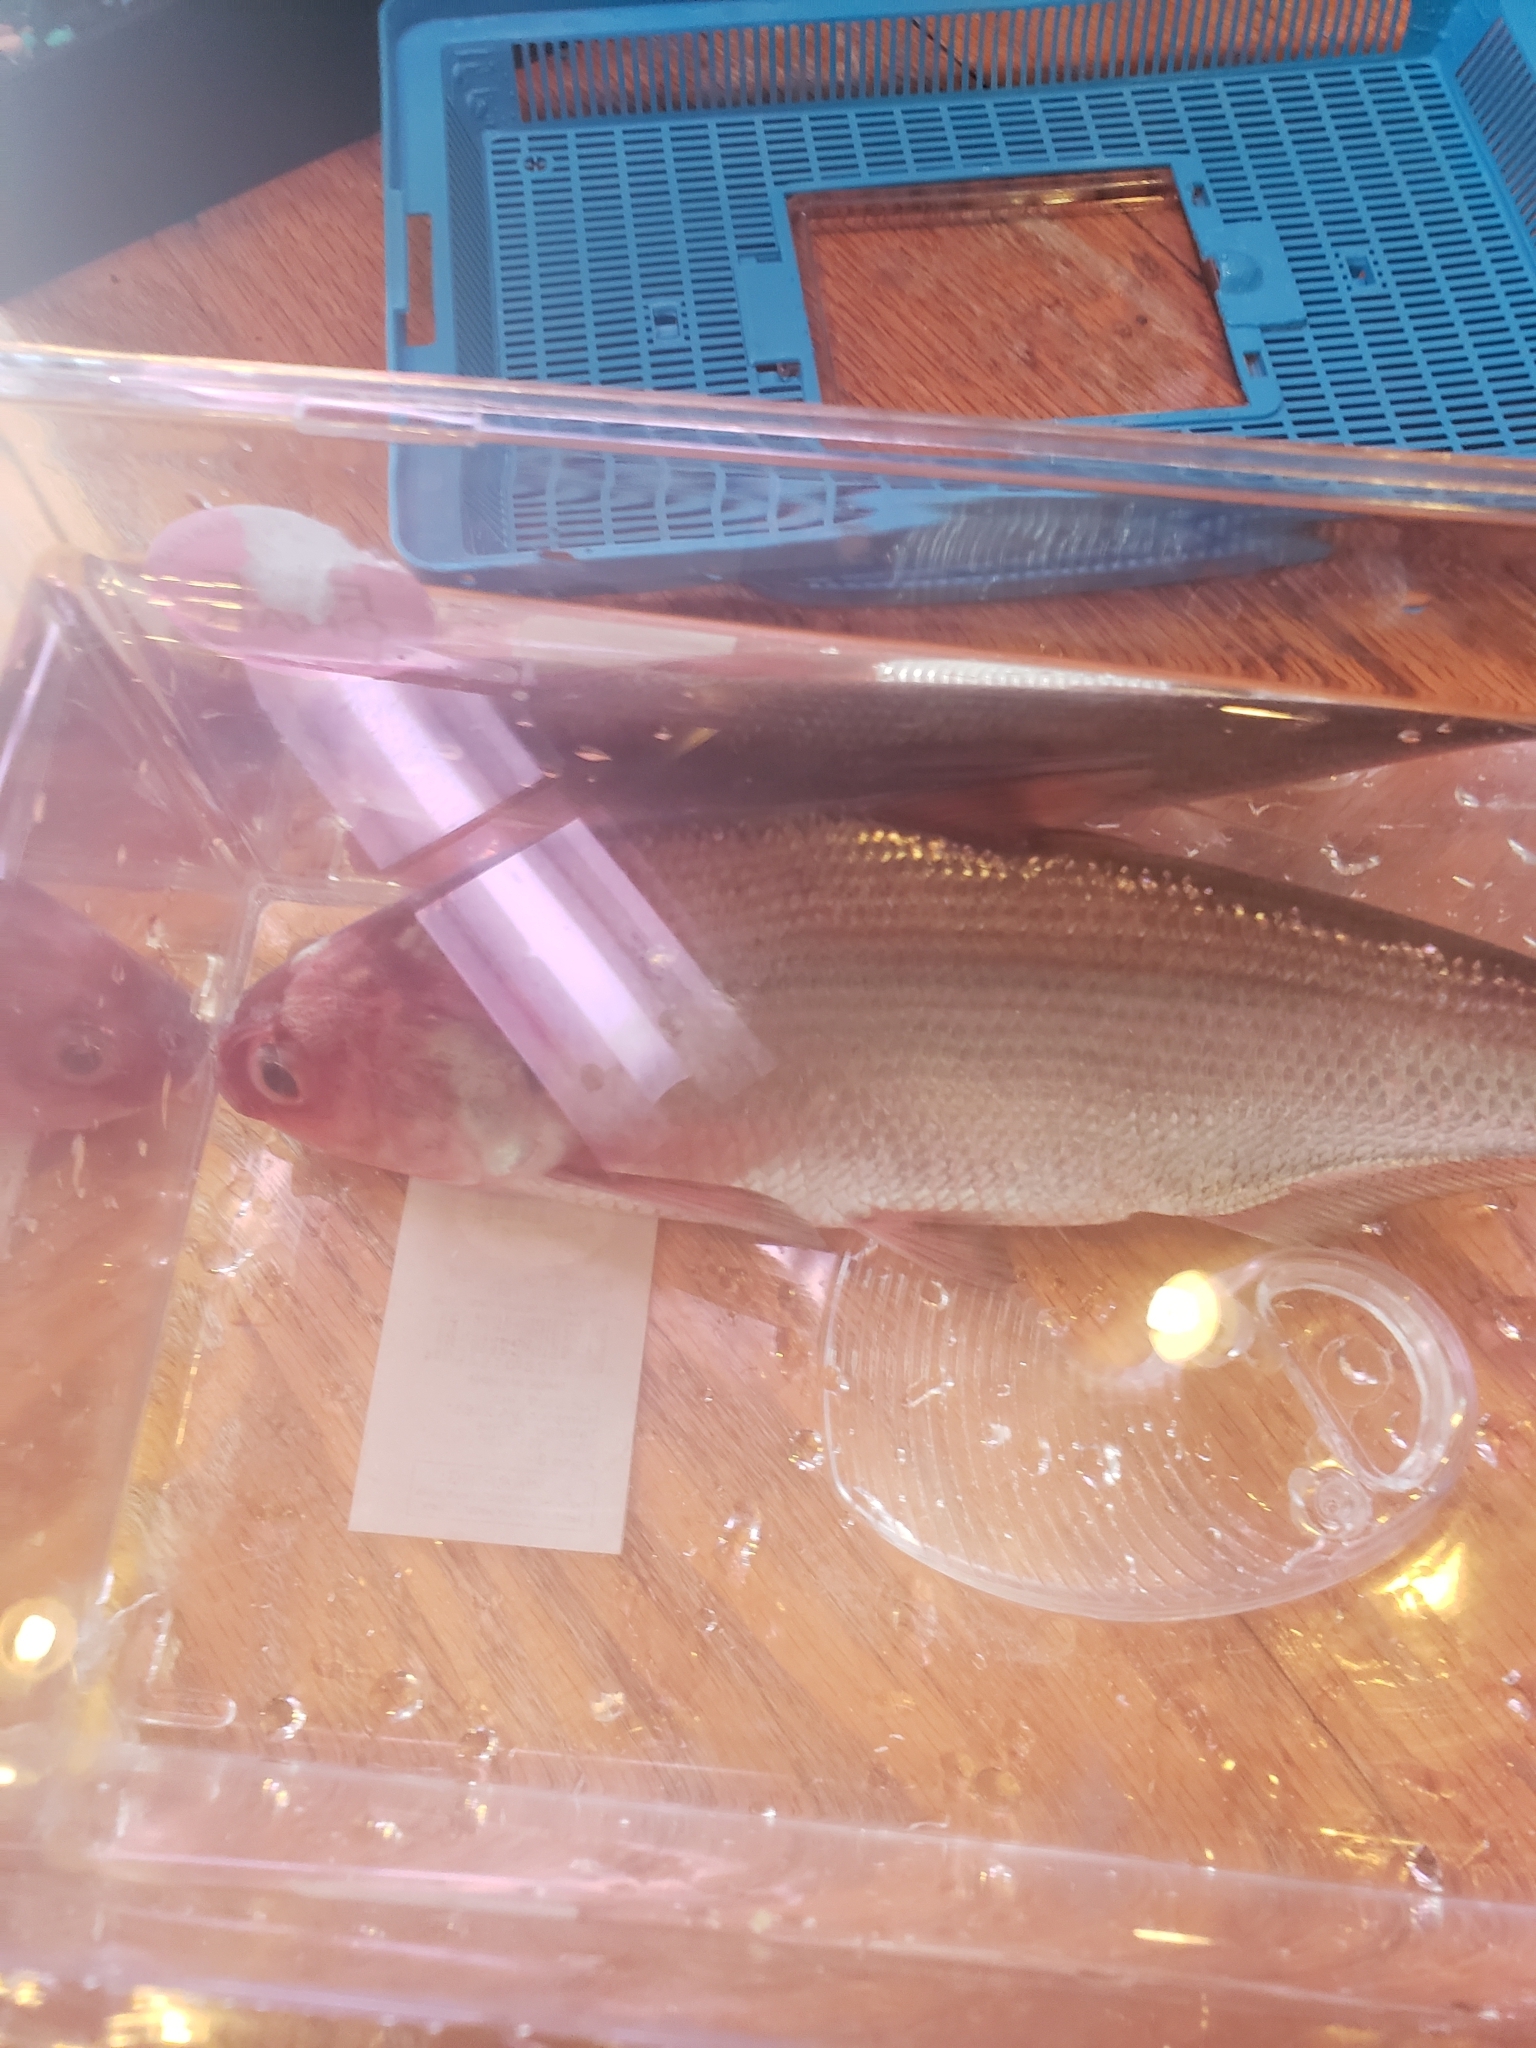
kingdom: Animalia
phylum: Chordata
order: Clupeiformes
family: Clupeidae
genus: Dorosoma
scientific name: Dorosoma cepedianum
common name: Gizzard shad
